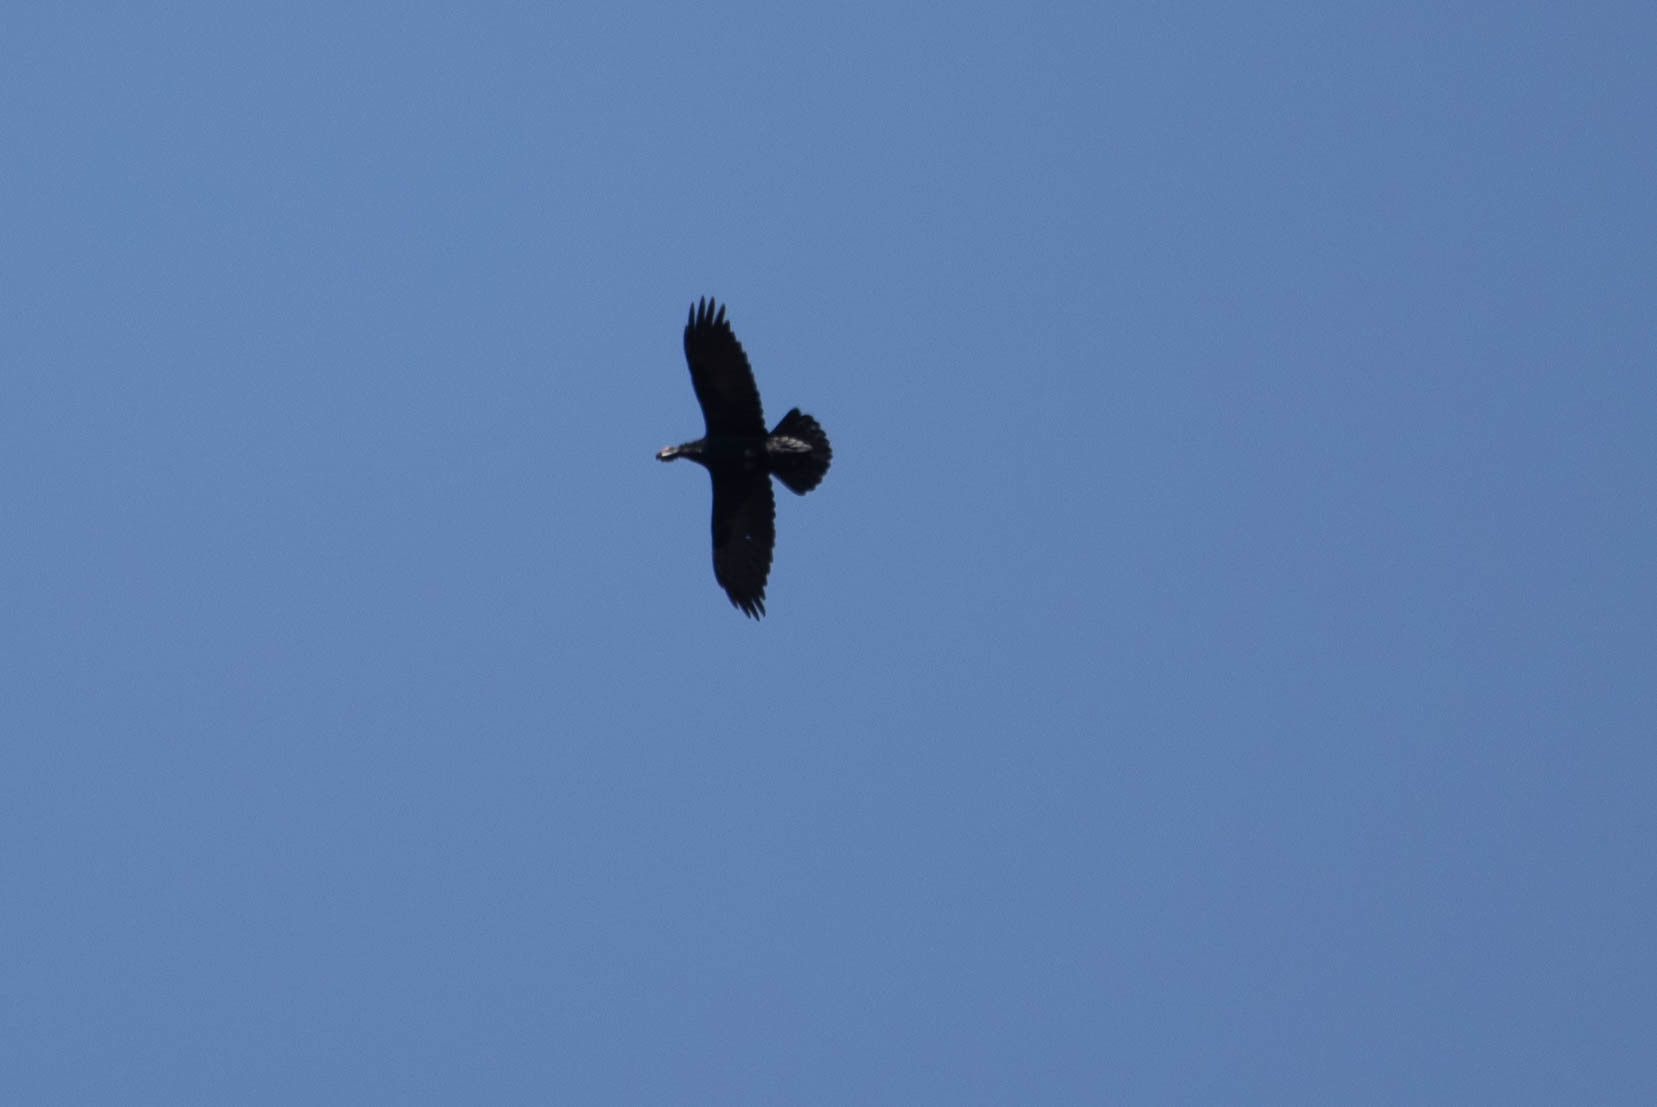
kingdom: Animalia
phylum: Chordata
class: Aves
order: Passeriformes
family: Corvidae
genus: Corvus
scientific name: Corvus corax
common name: Common raven
